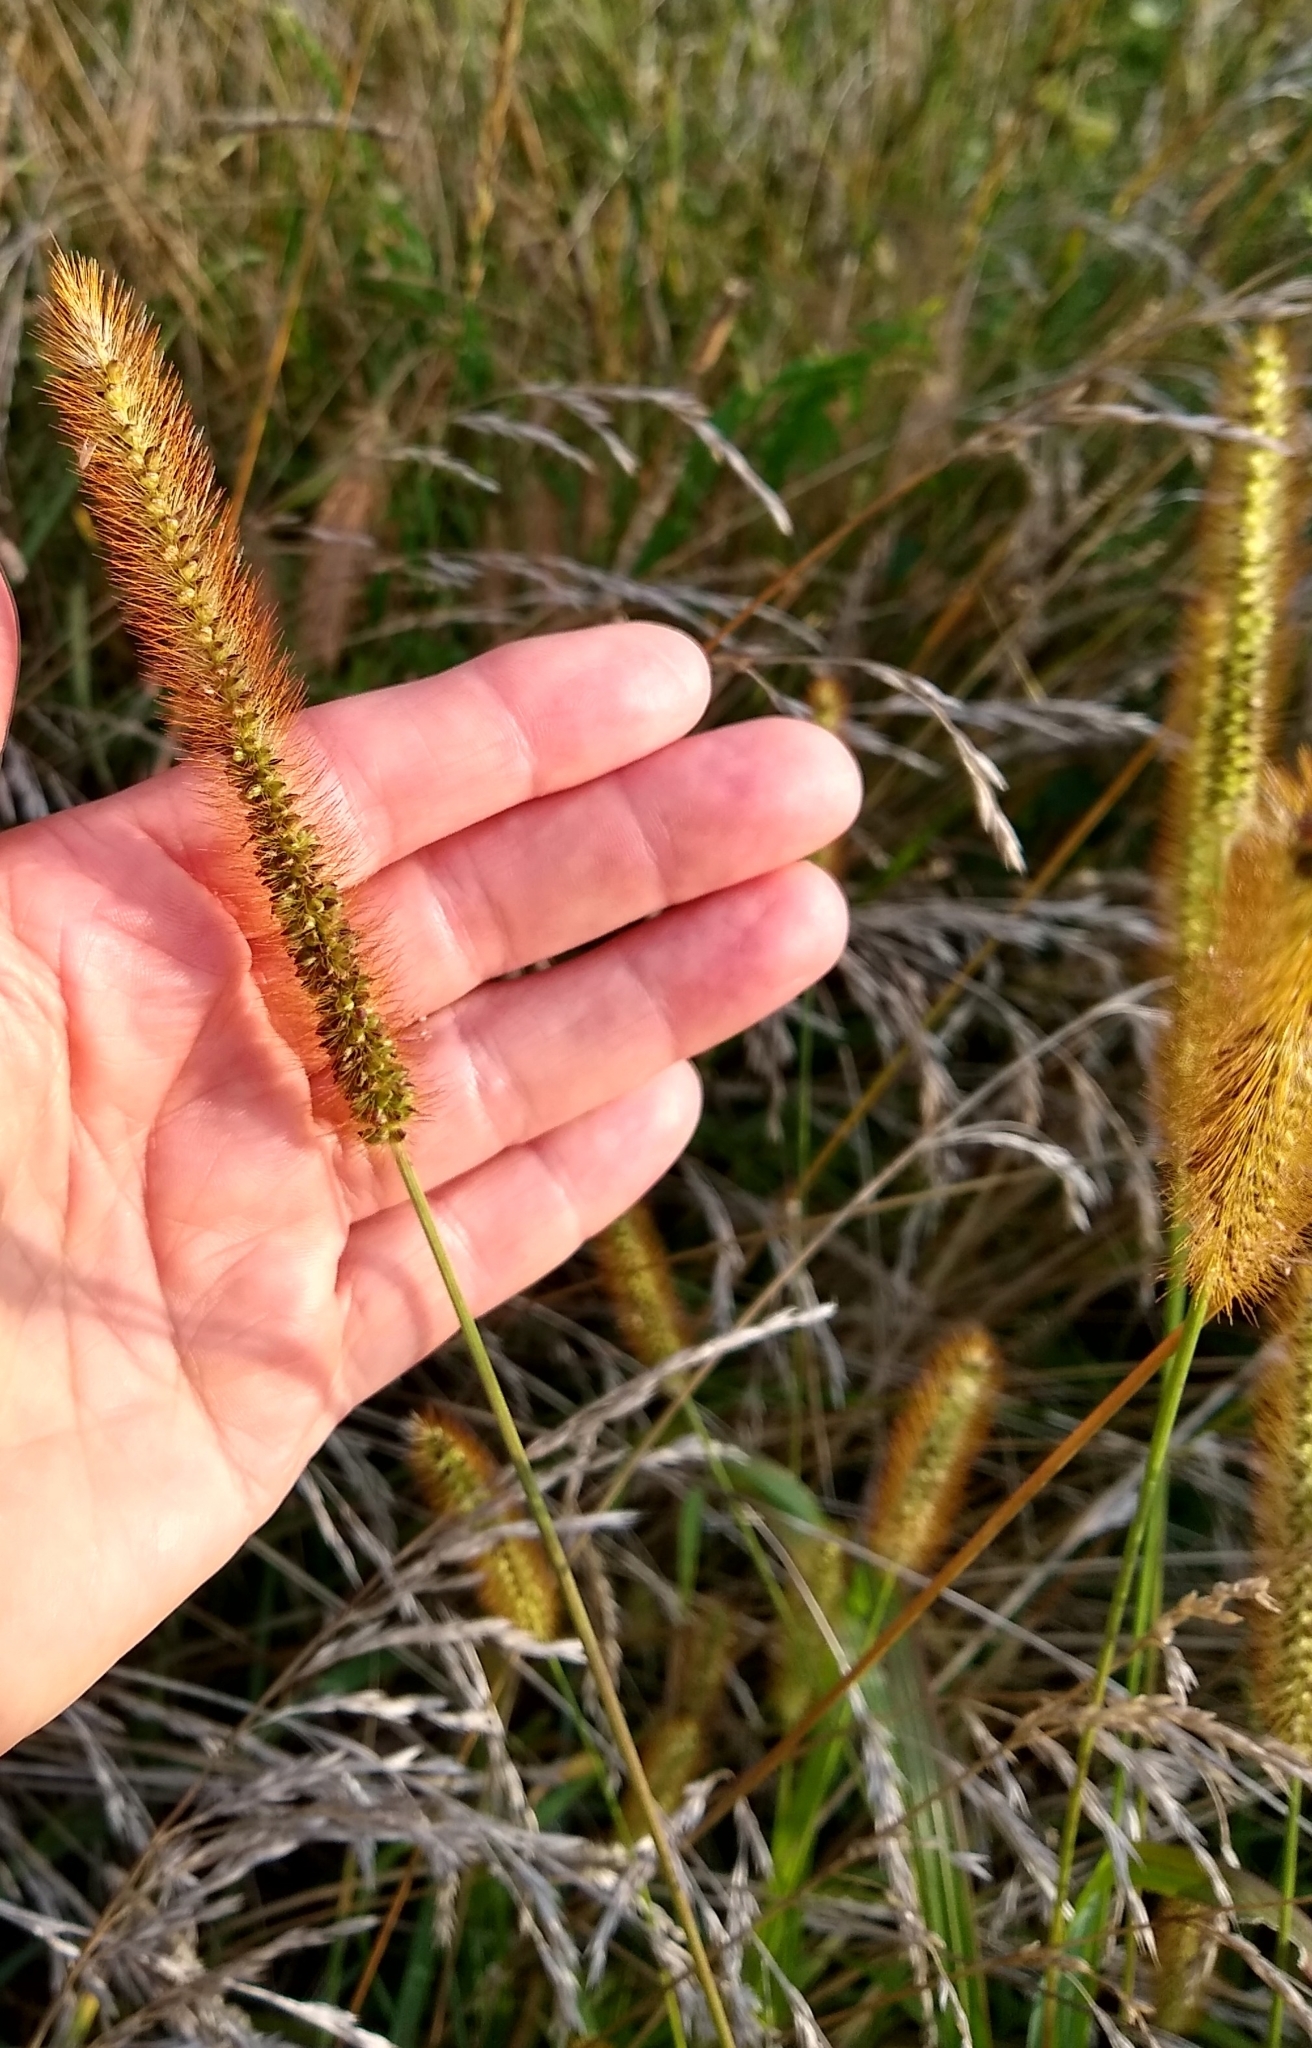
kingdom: Plantae
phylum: Tracheophyta
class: Liliopsida
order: Poales
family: Poaceae
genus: Setaria
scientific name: Setaria pumila
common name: Yellow bristle-grass
